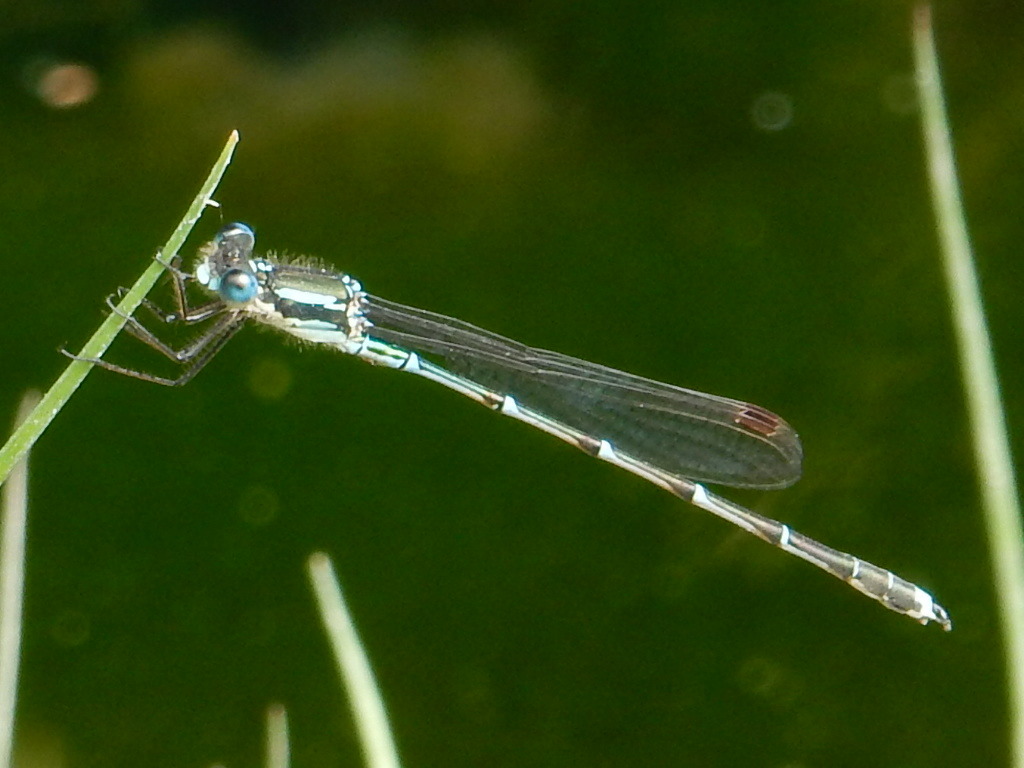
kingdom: Animalia
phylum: Arthropoda
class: Insecta
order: Odonata
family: Lestidae
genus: Austrolestes
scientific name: Austrolestes colensonis
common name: Blue damselfly
